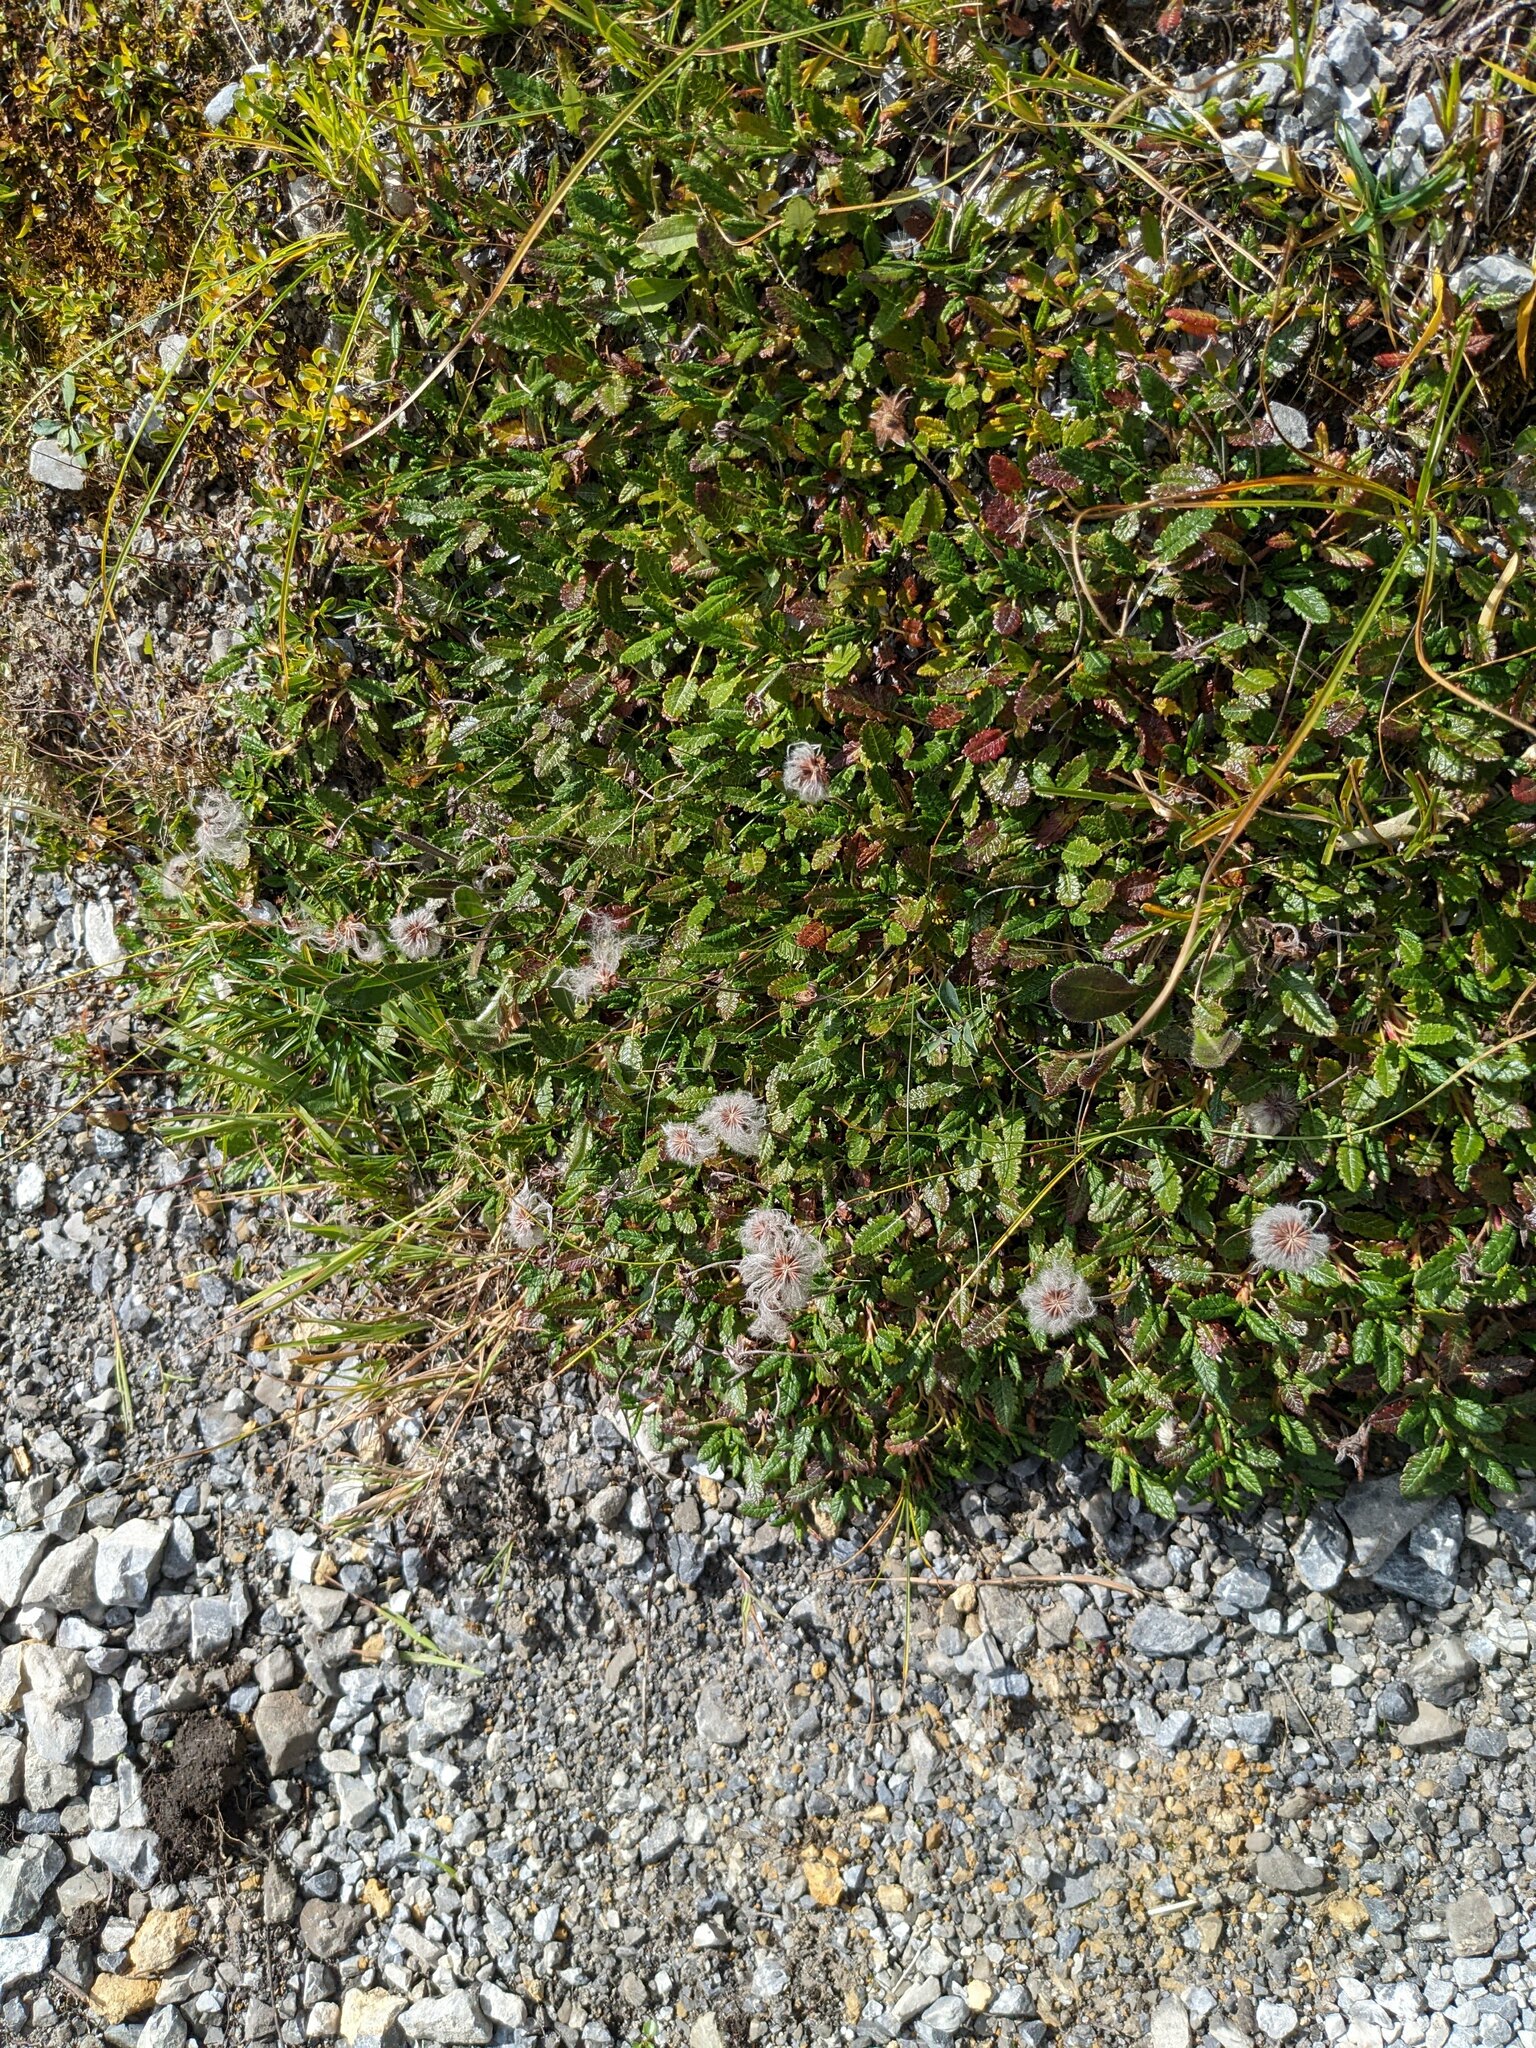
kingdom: Plantae
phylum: Tracheophyta
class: Magnoliopsida
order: Rosales
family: Rosaceae
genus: Dryas
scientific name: Dryas octopetala
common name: Eight-petal mountain-avens
